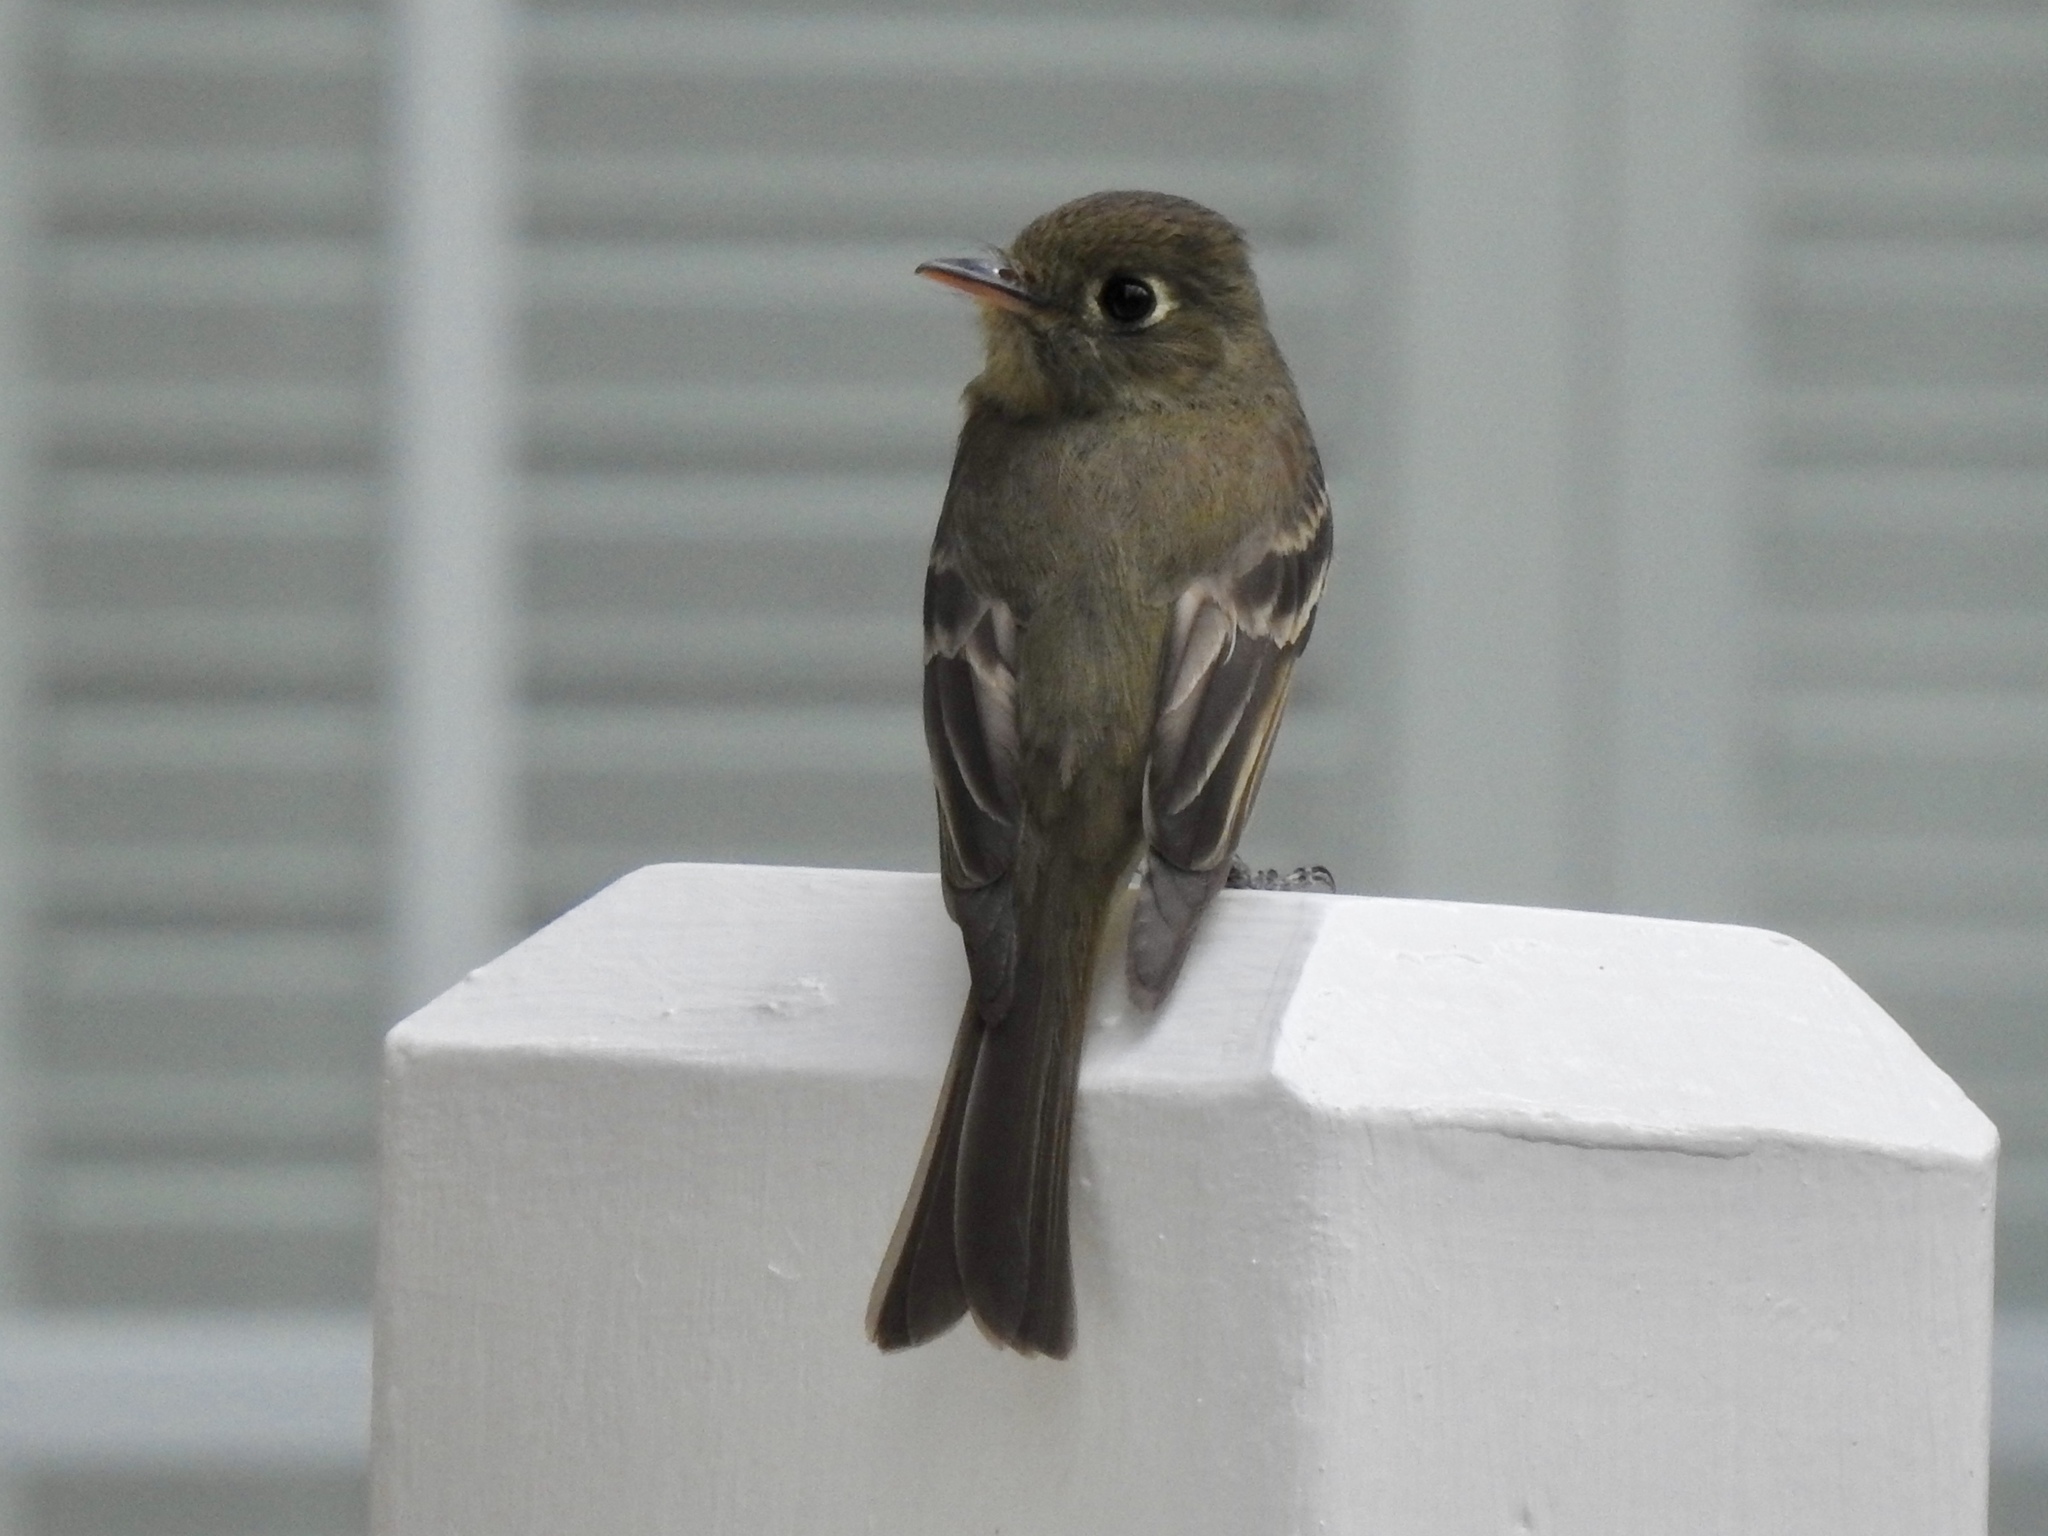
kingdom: Animalia
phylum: Chordata
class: Aves
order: Passeriformes
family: Tyrannidae
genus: Empidonax
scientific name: Empidonax difficilis
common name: Pacific-slope flycatcher
